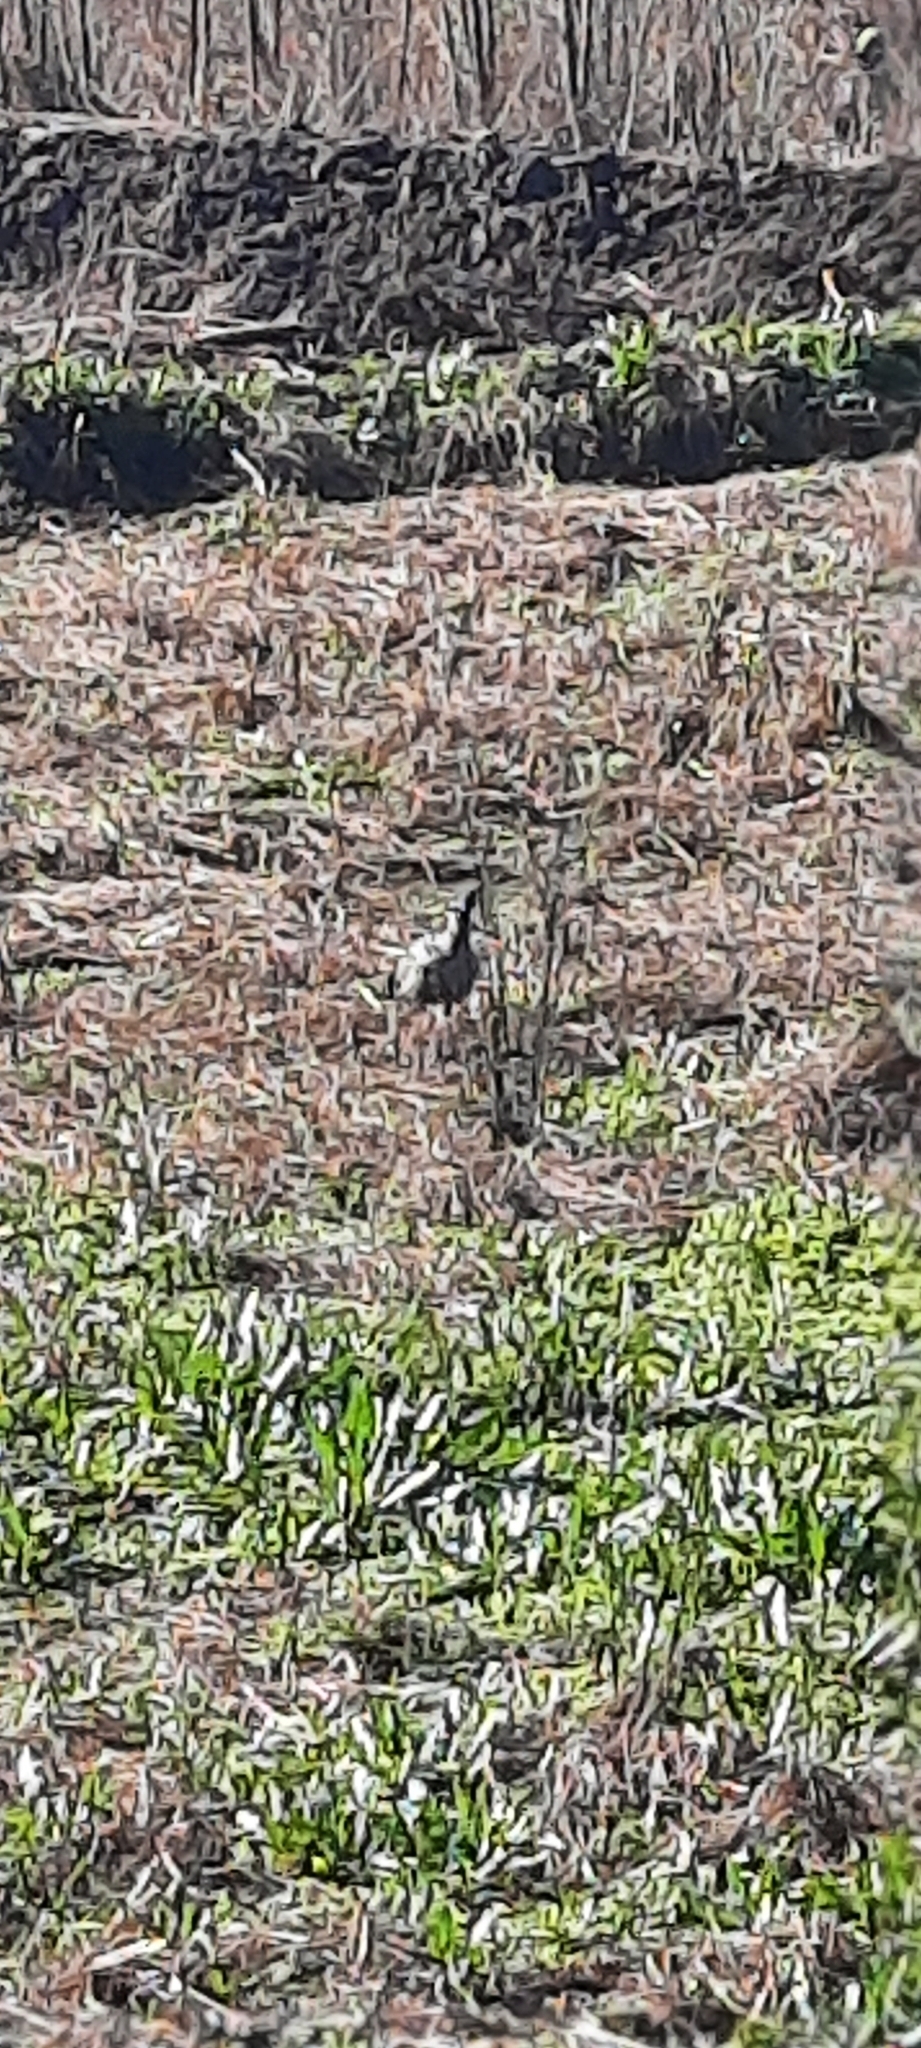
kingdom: Animalia
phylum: Chordata
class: Aves
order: Anseriformes
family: Anhimidae
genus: Chauna
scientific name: Chauna torquata
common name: Southern screamer
